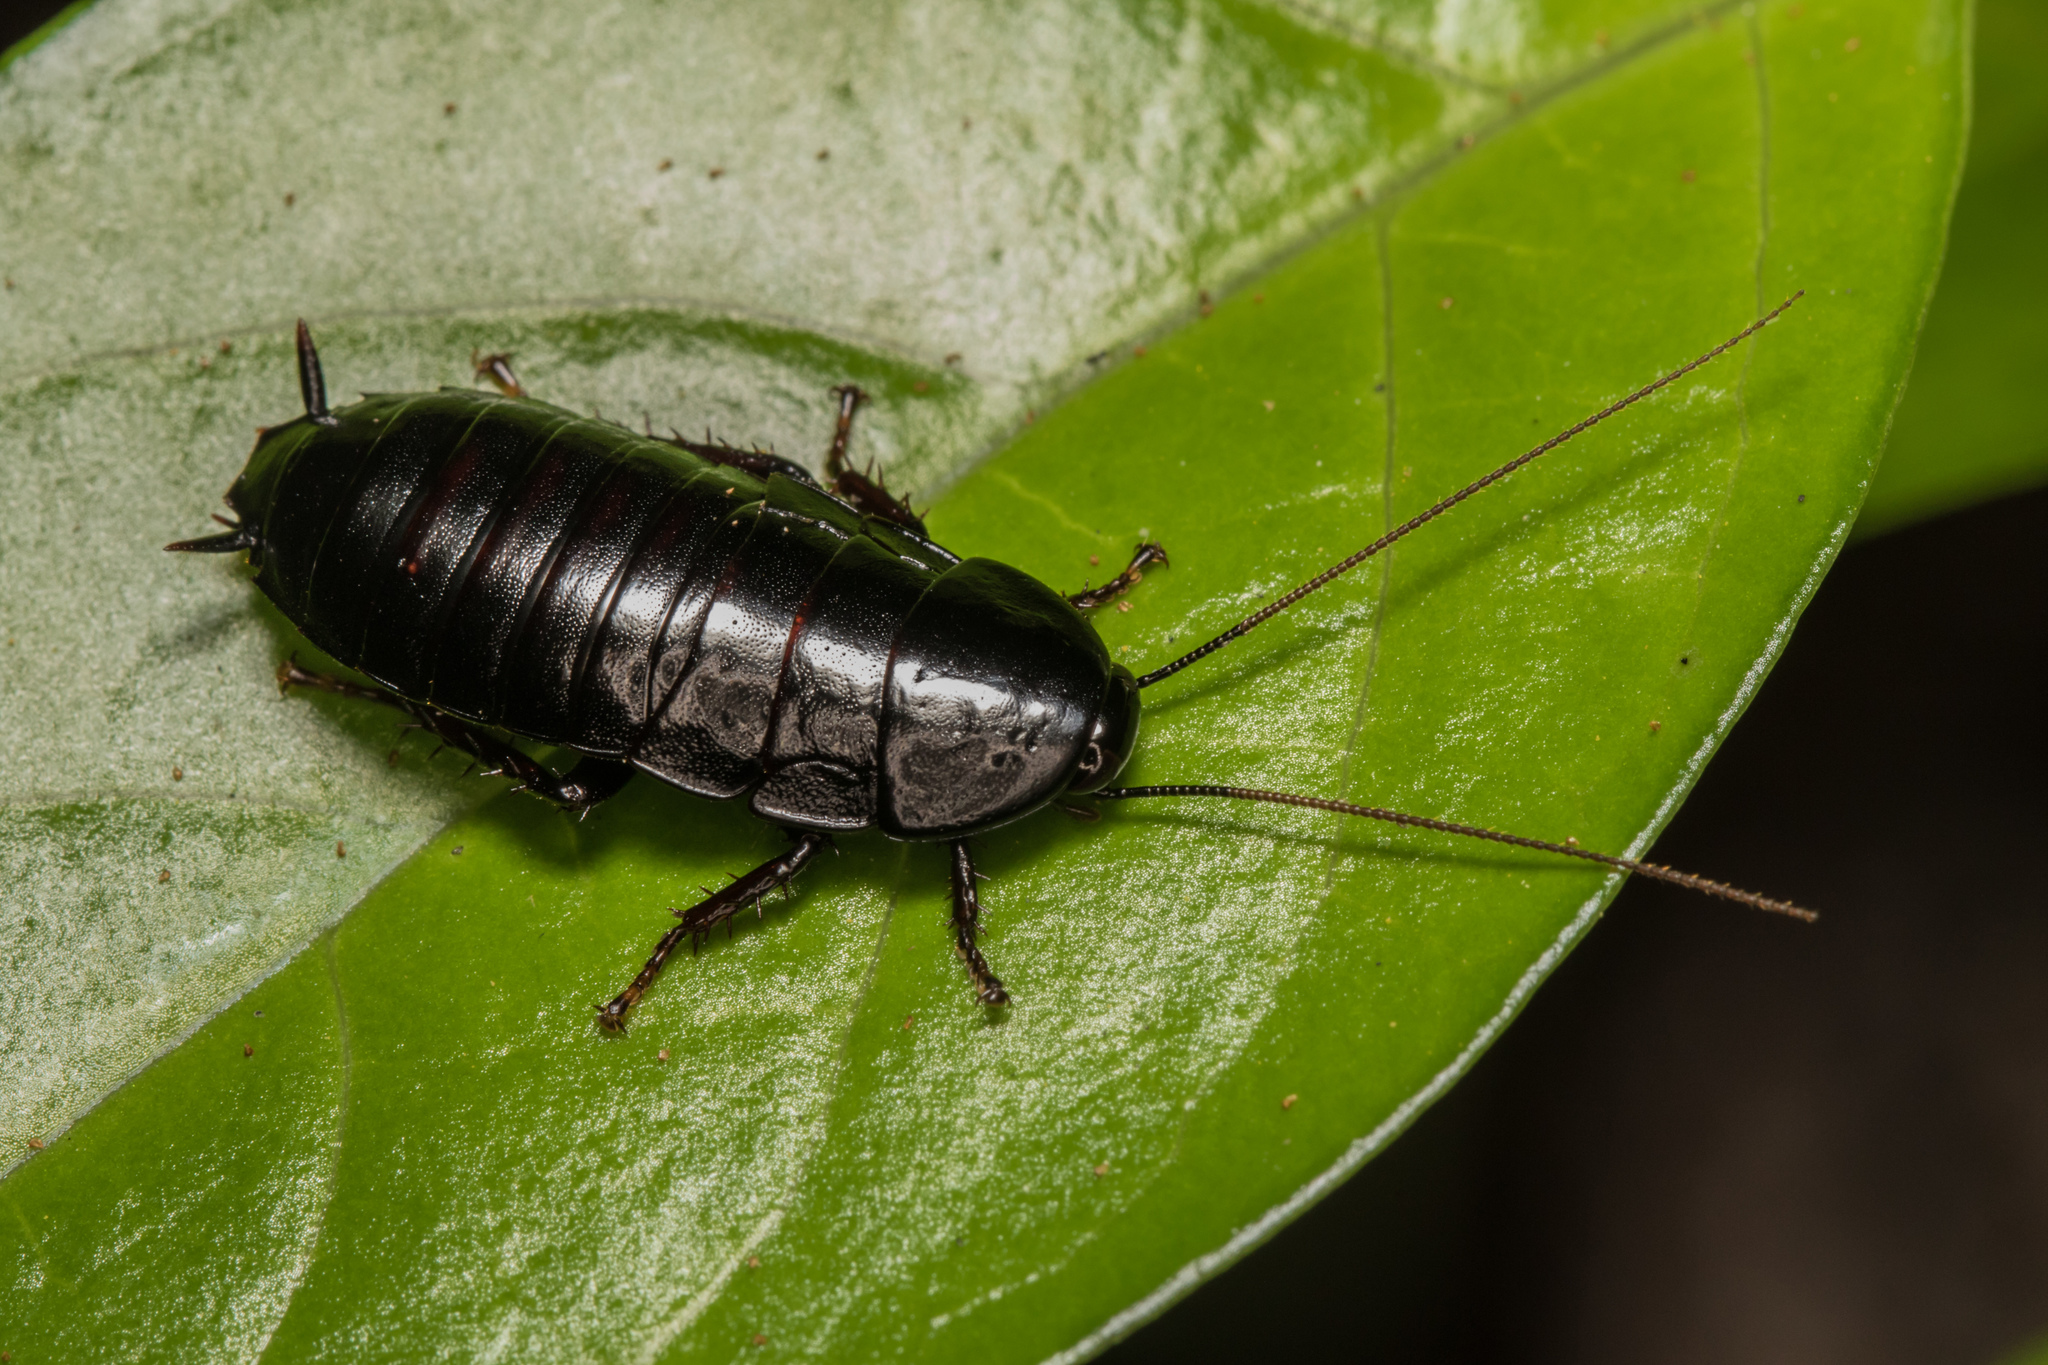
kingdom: Animalia
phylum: Arthropoda
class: Insecta
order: Blattodea
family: Blattidae
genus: Maoriblatta
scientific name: Maoriblatta novaeseelandiae
